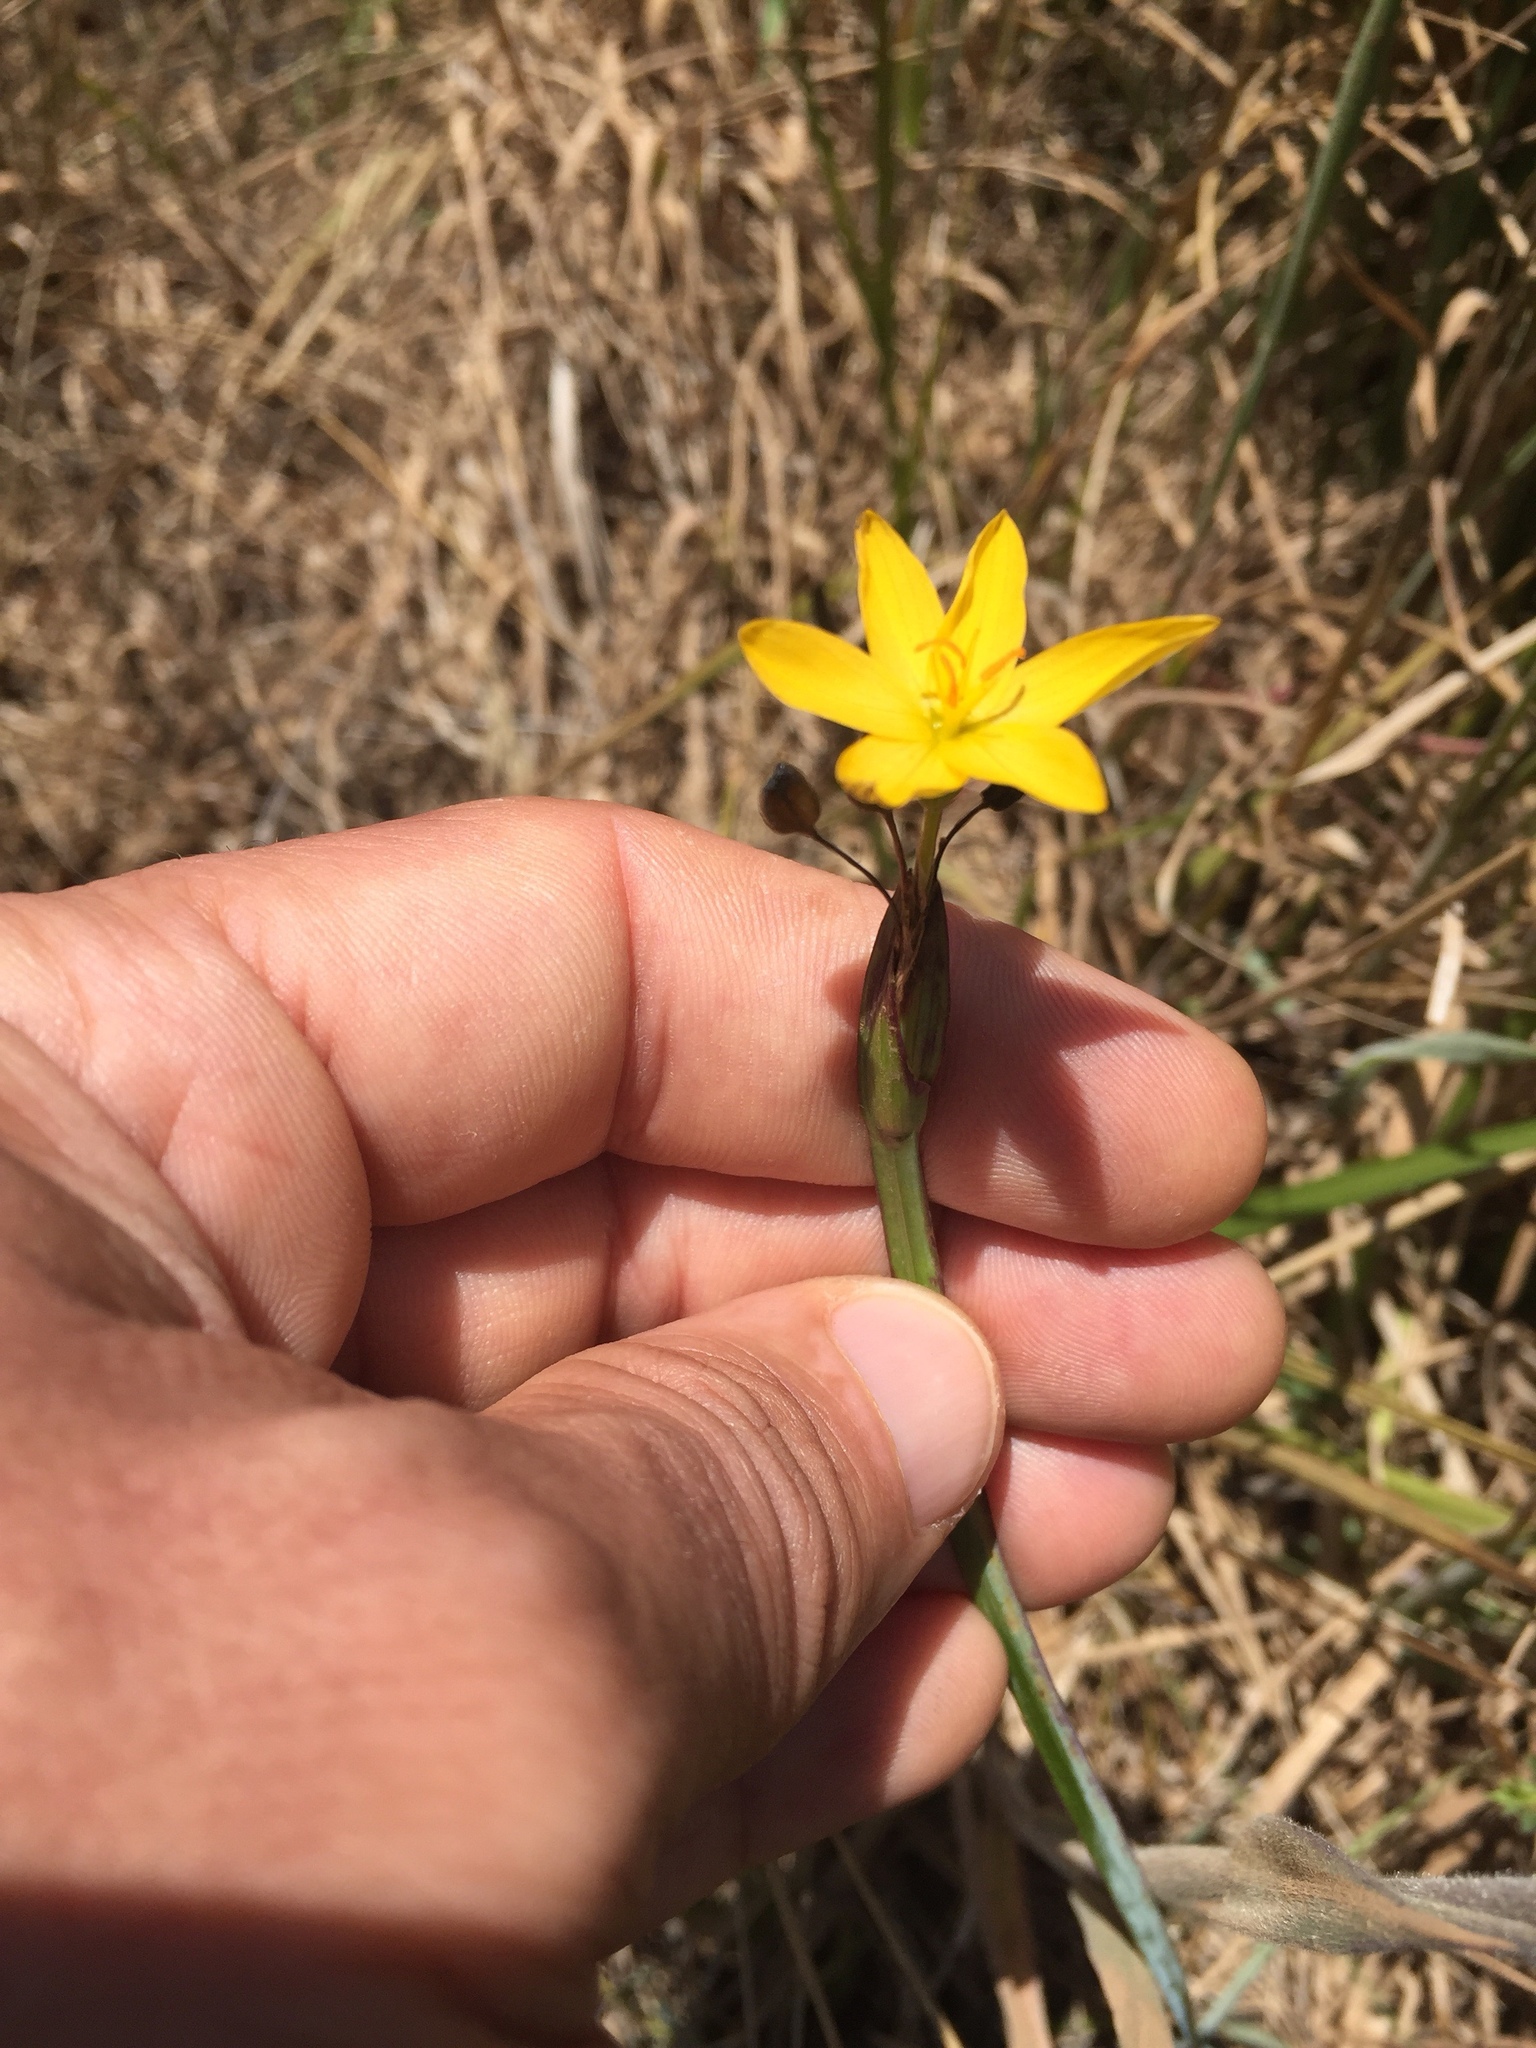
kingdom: Plantae
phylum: Tracheophyta
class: Liliopsida
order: Asparagales
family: Iridaceae
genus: Sisyrinchium
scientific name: Sisyrinchium californicum
